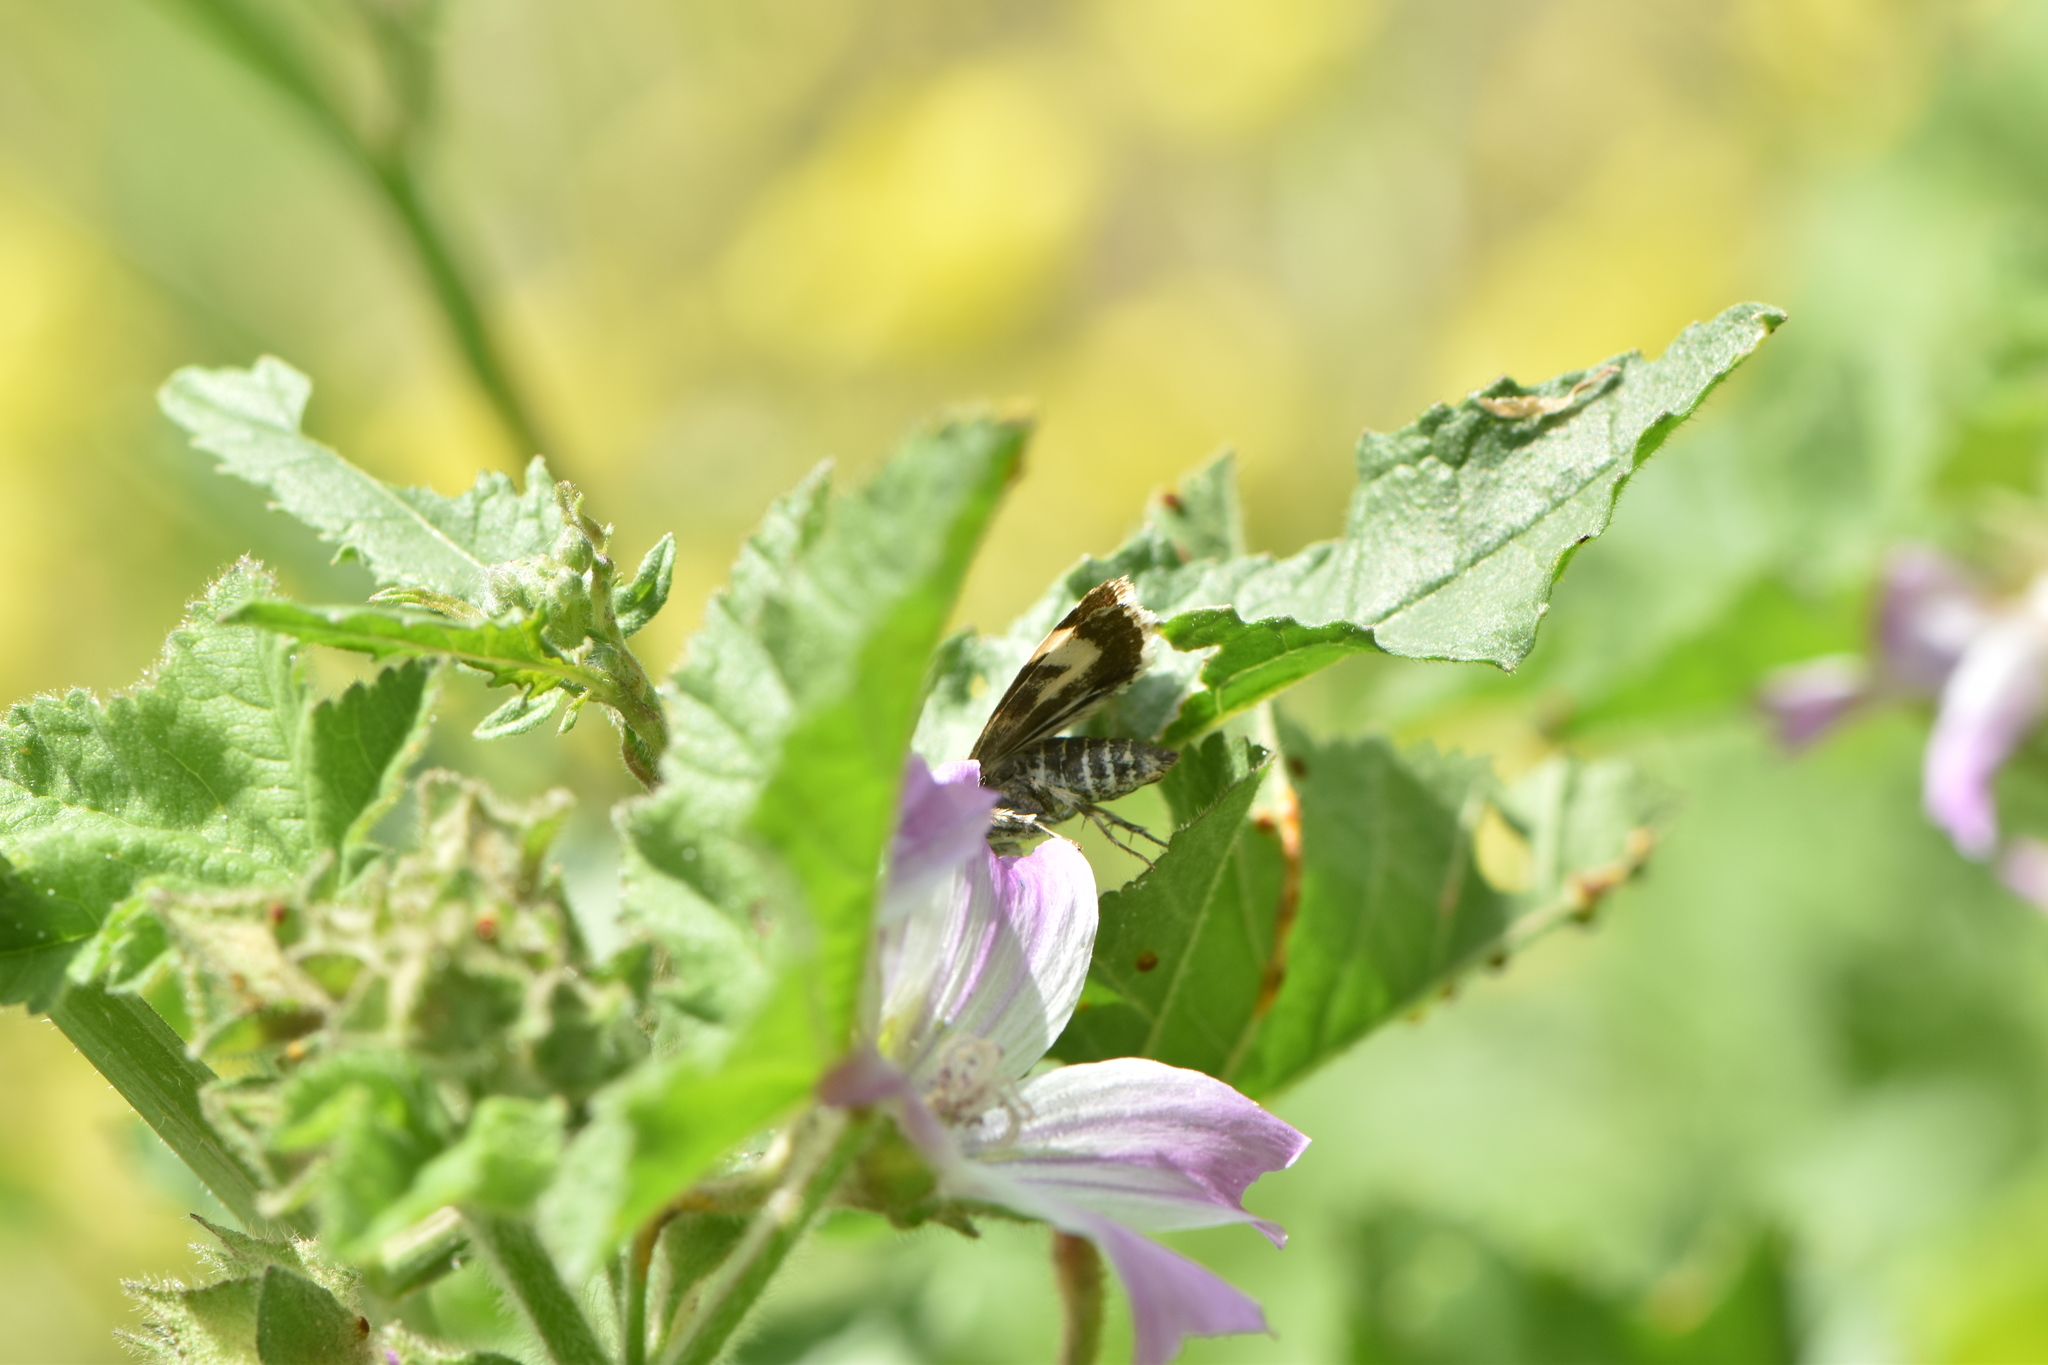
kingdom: Animalia
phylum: Arthropoda
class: Insecta
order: Lepidoptera
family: Noctuidae
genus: Acontia
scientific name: Acontia lucida
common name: Pale shoulder
